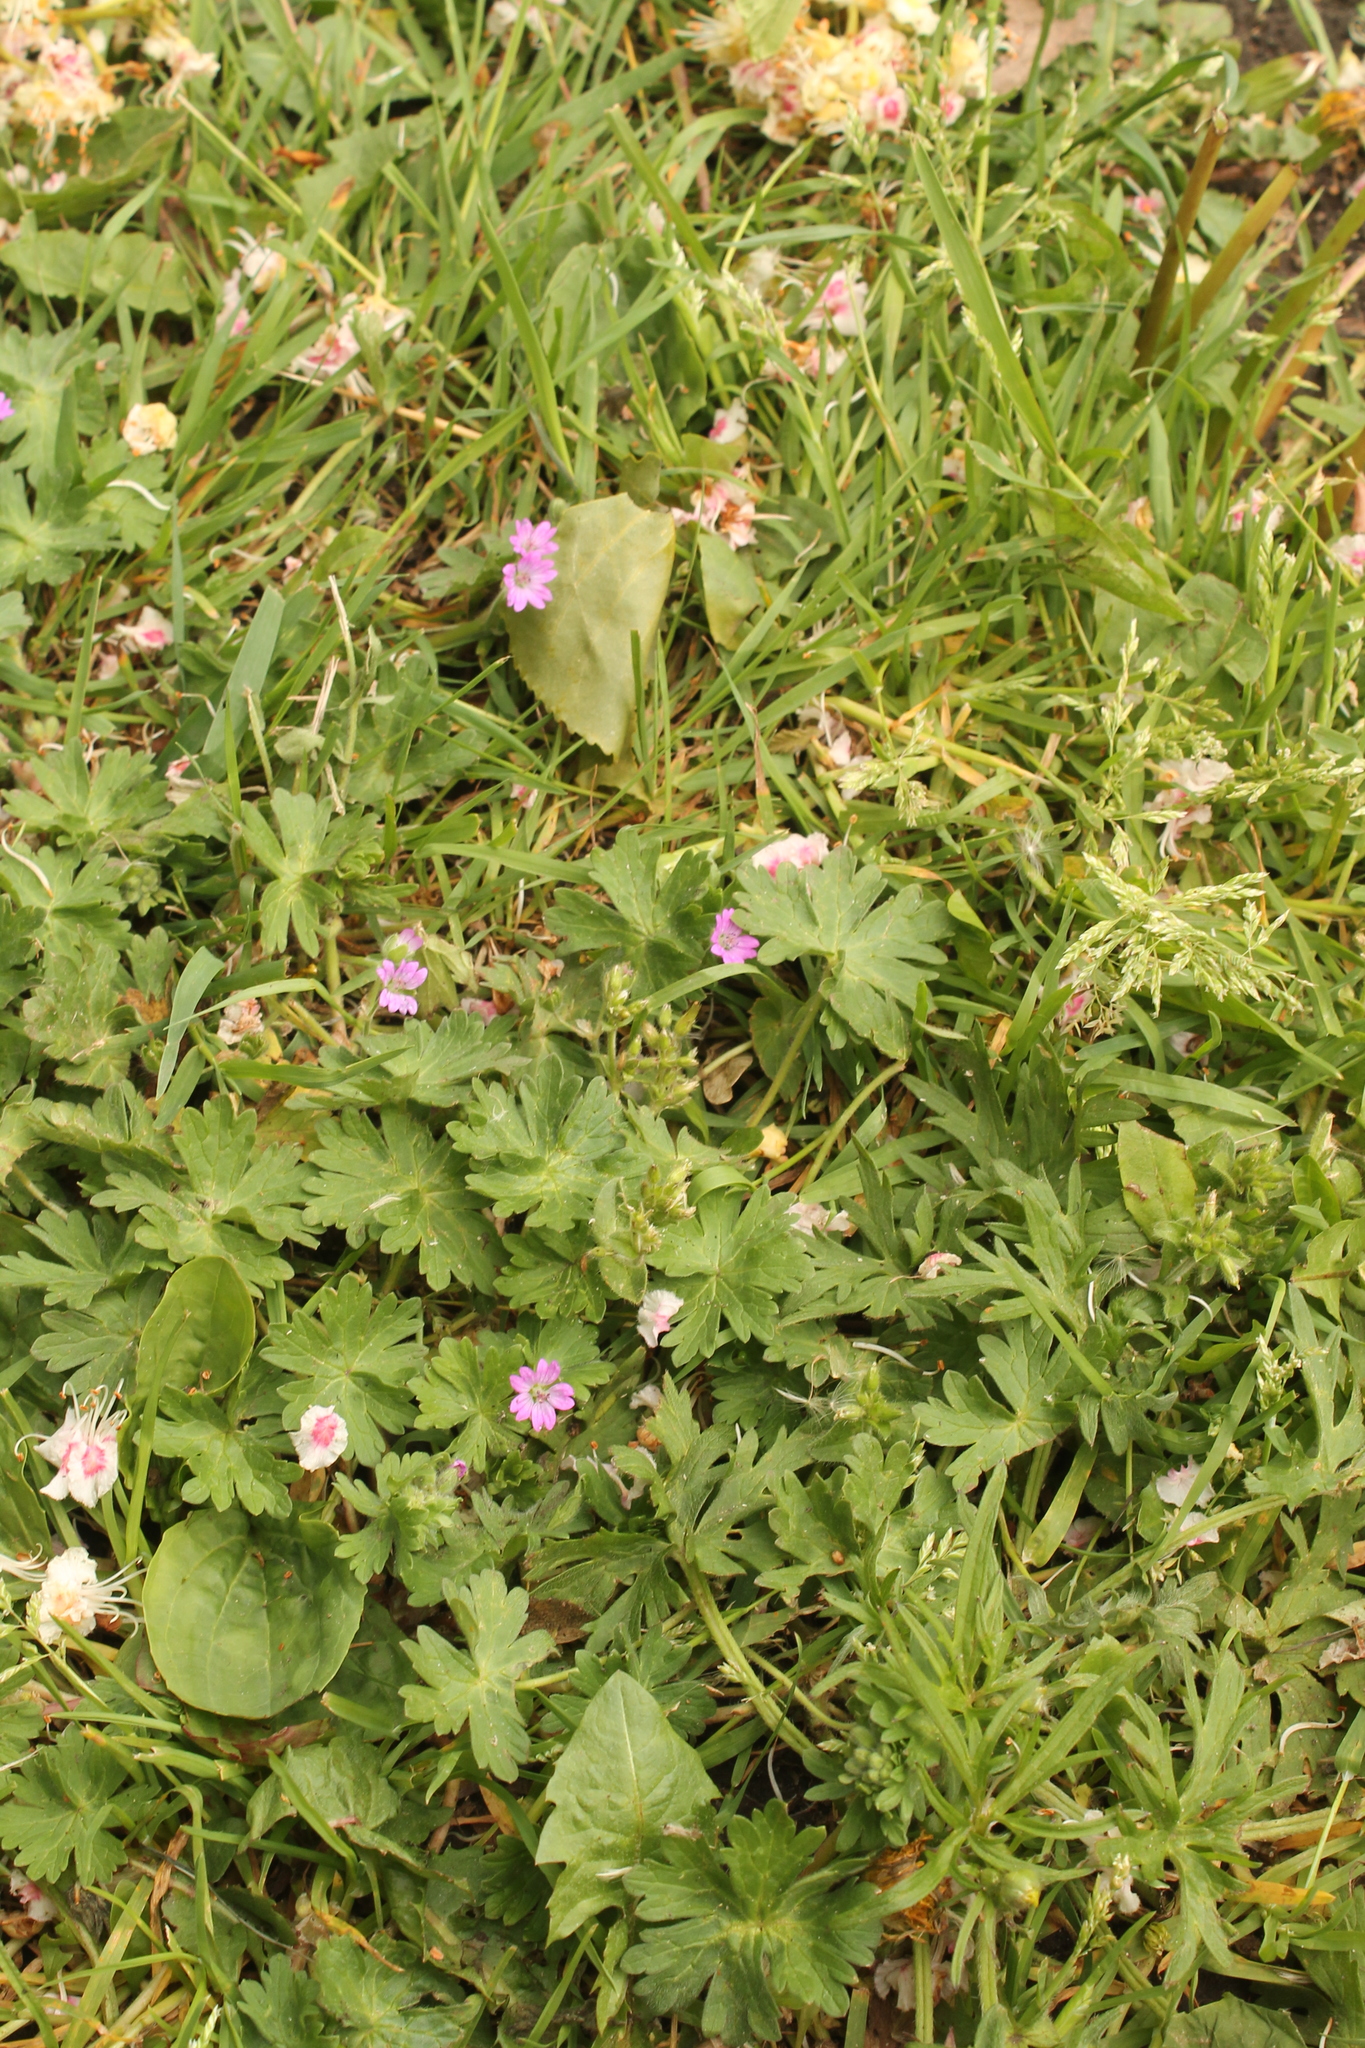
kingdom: Plantae
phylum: Tracheophyta
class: Magnoliopsida
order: Geraniales
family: Geraniaceae
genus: Geranium
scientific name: Geranium molle
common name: Dove's-foot crane's-bill
